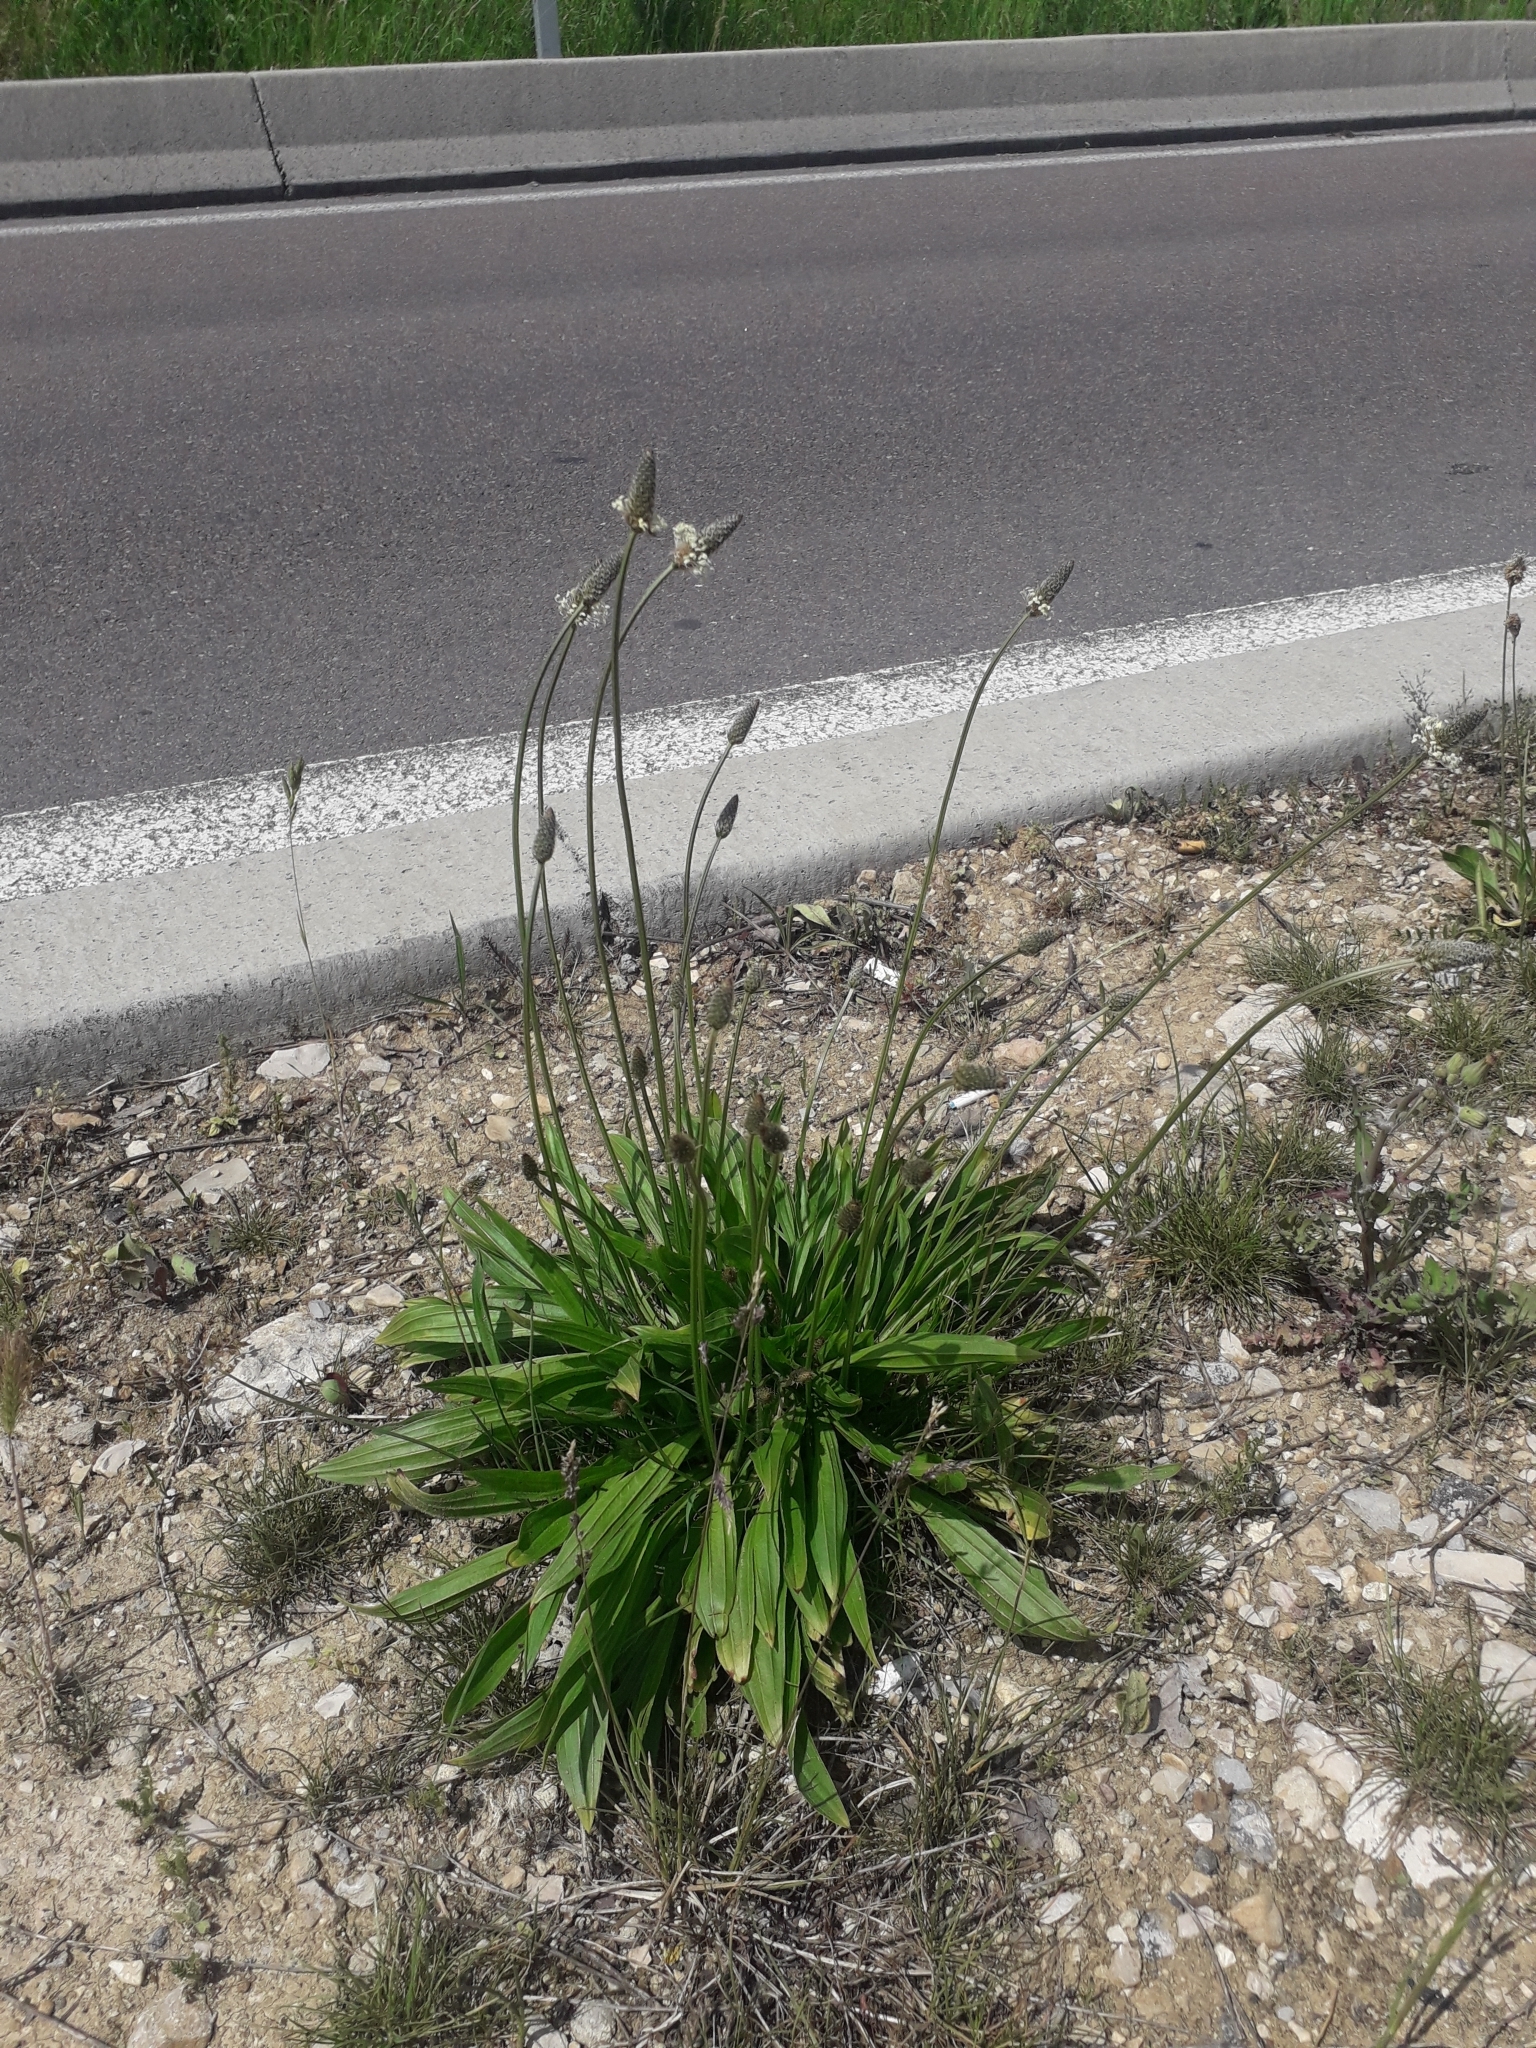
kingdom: Plantae
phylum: Tracheophyta
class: Magnoliopsida
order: Lamiales
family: Plantaginaceae
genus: Plantago
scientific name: Plantago lanceolata
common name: Ribwort plantain
